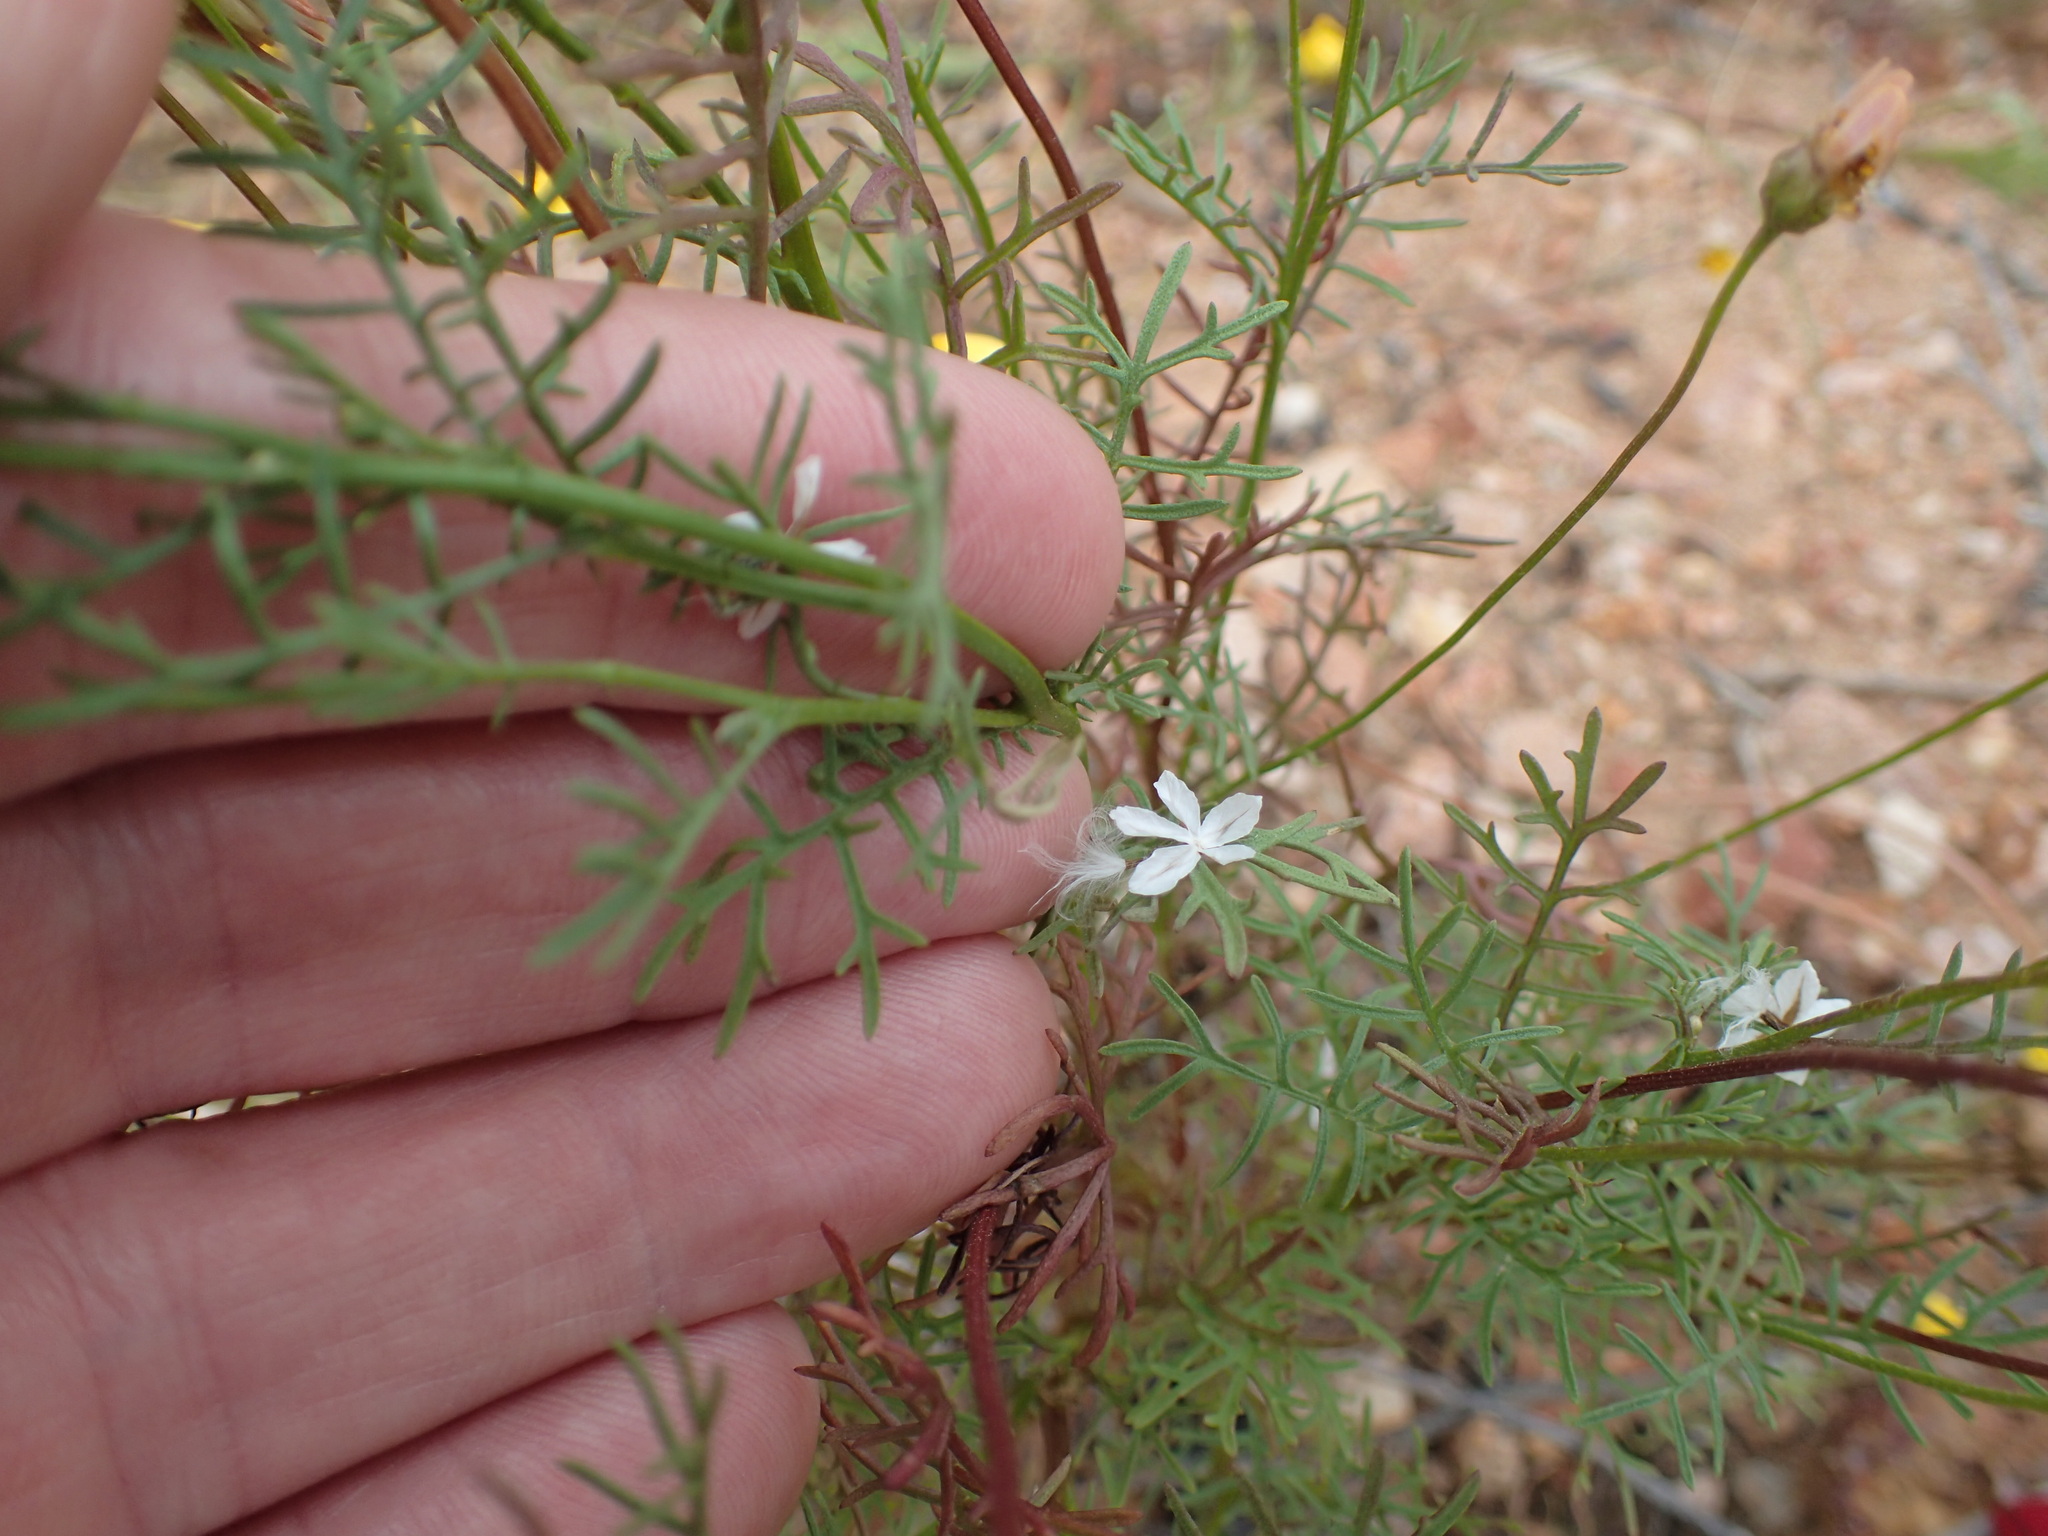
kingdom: Plantae
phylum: Tracheophyta
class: Magnoliopsida
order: Asterales
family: Asteraceae
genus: Ursinia
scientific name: Ursinia anthemoides
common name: Ursinia
